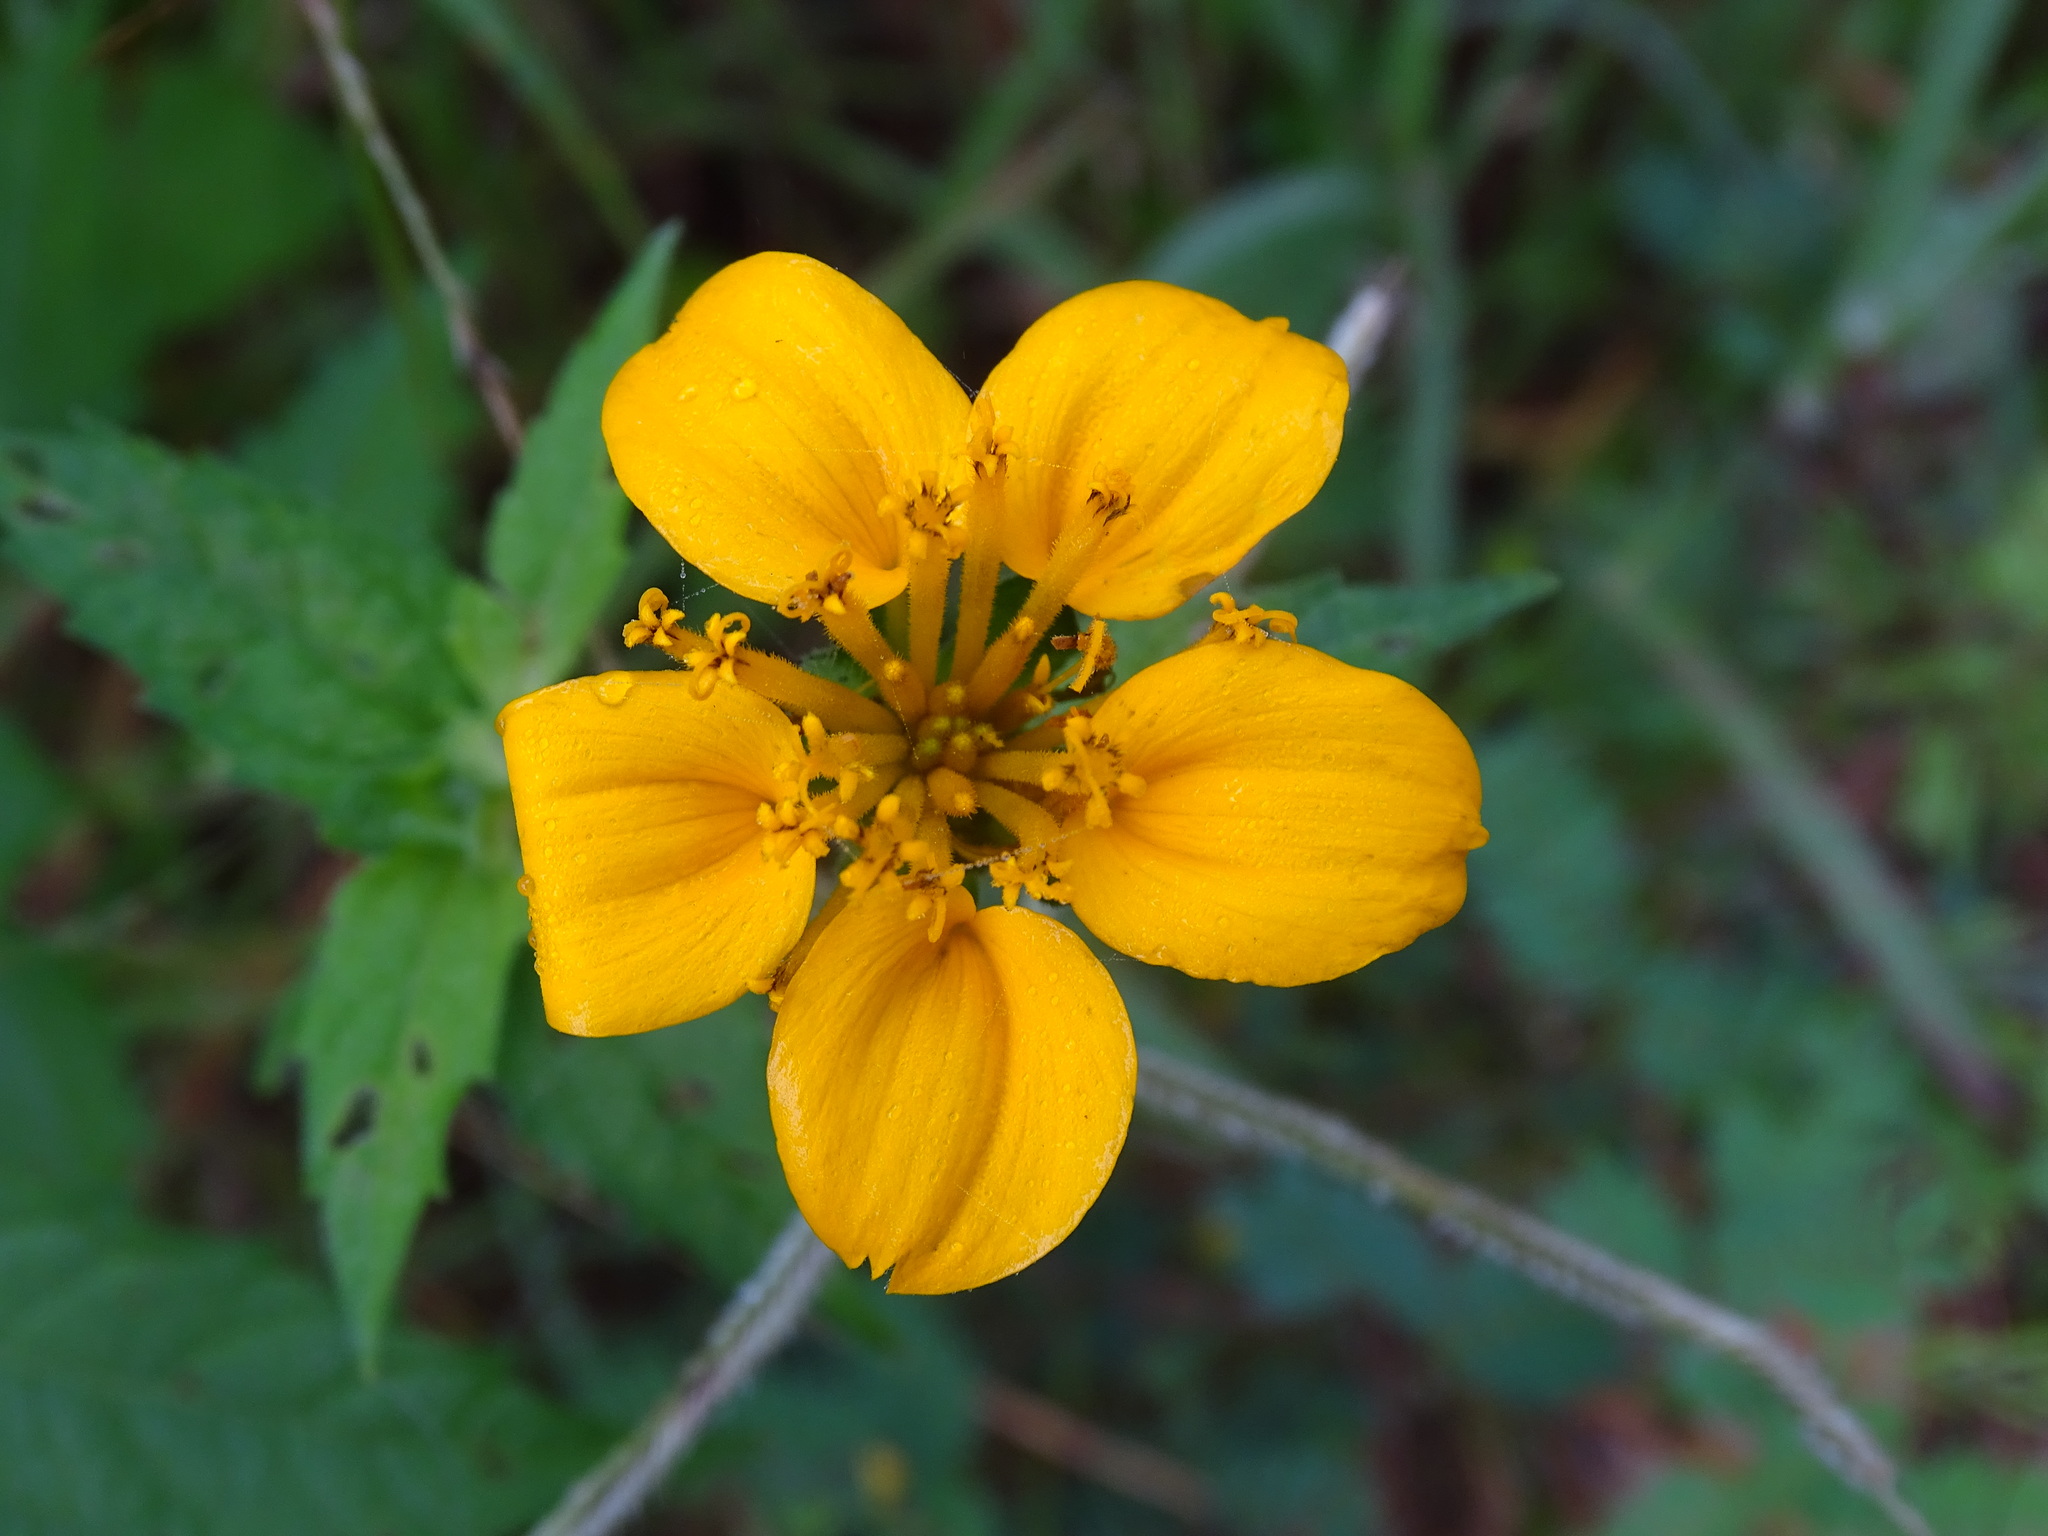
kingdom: Plantae
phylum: Tracheophyta
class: Magnoliopsida
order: Asterales
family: Asteraceae
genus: Sclerocarpus
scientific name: Sclerocarpus divaricatus
